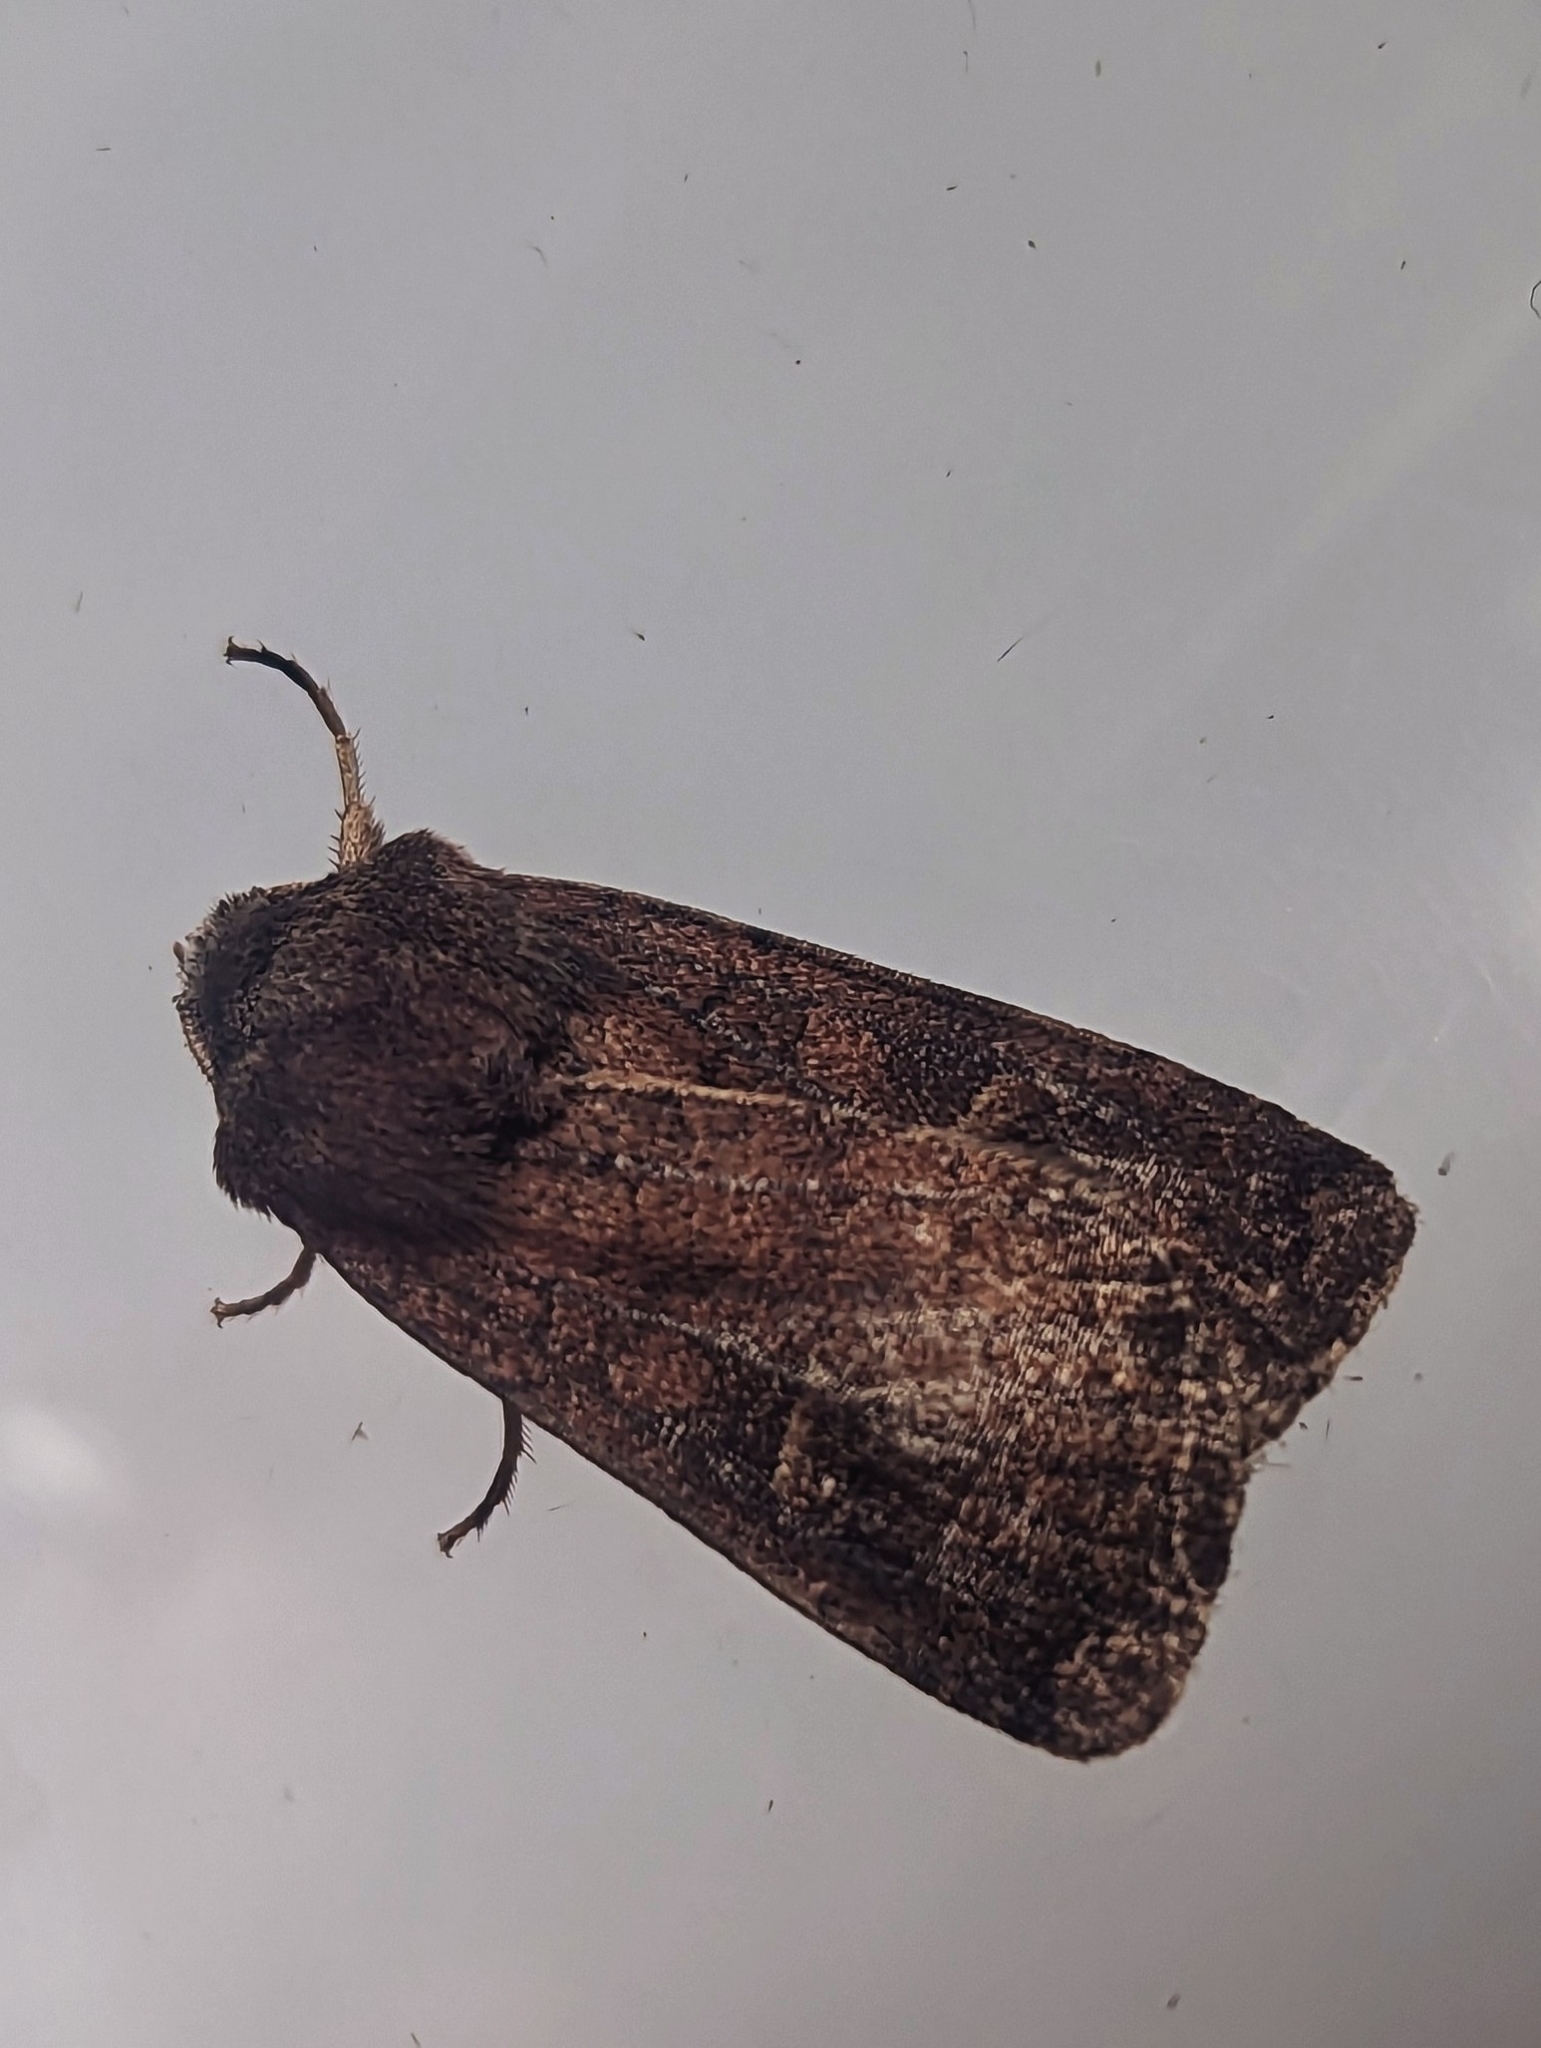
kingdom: Animalia
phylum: Arthropoda
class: Insecta
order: Lepidoptera
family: Noctuidae
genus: Xestia
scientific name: Xestia xanthographa
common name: Square-spot rustic
